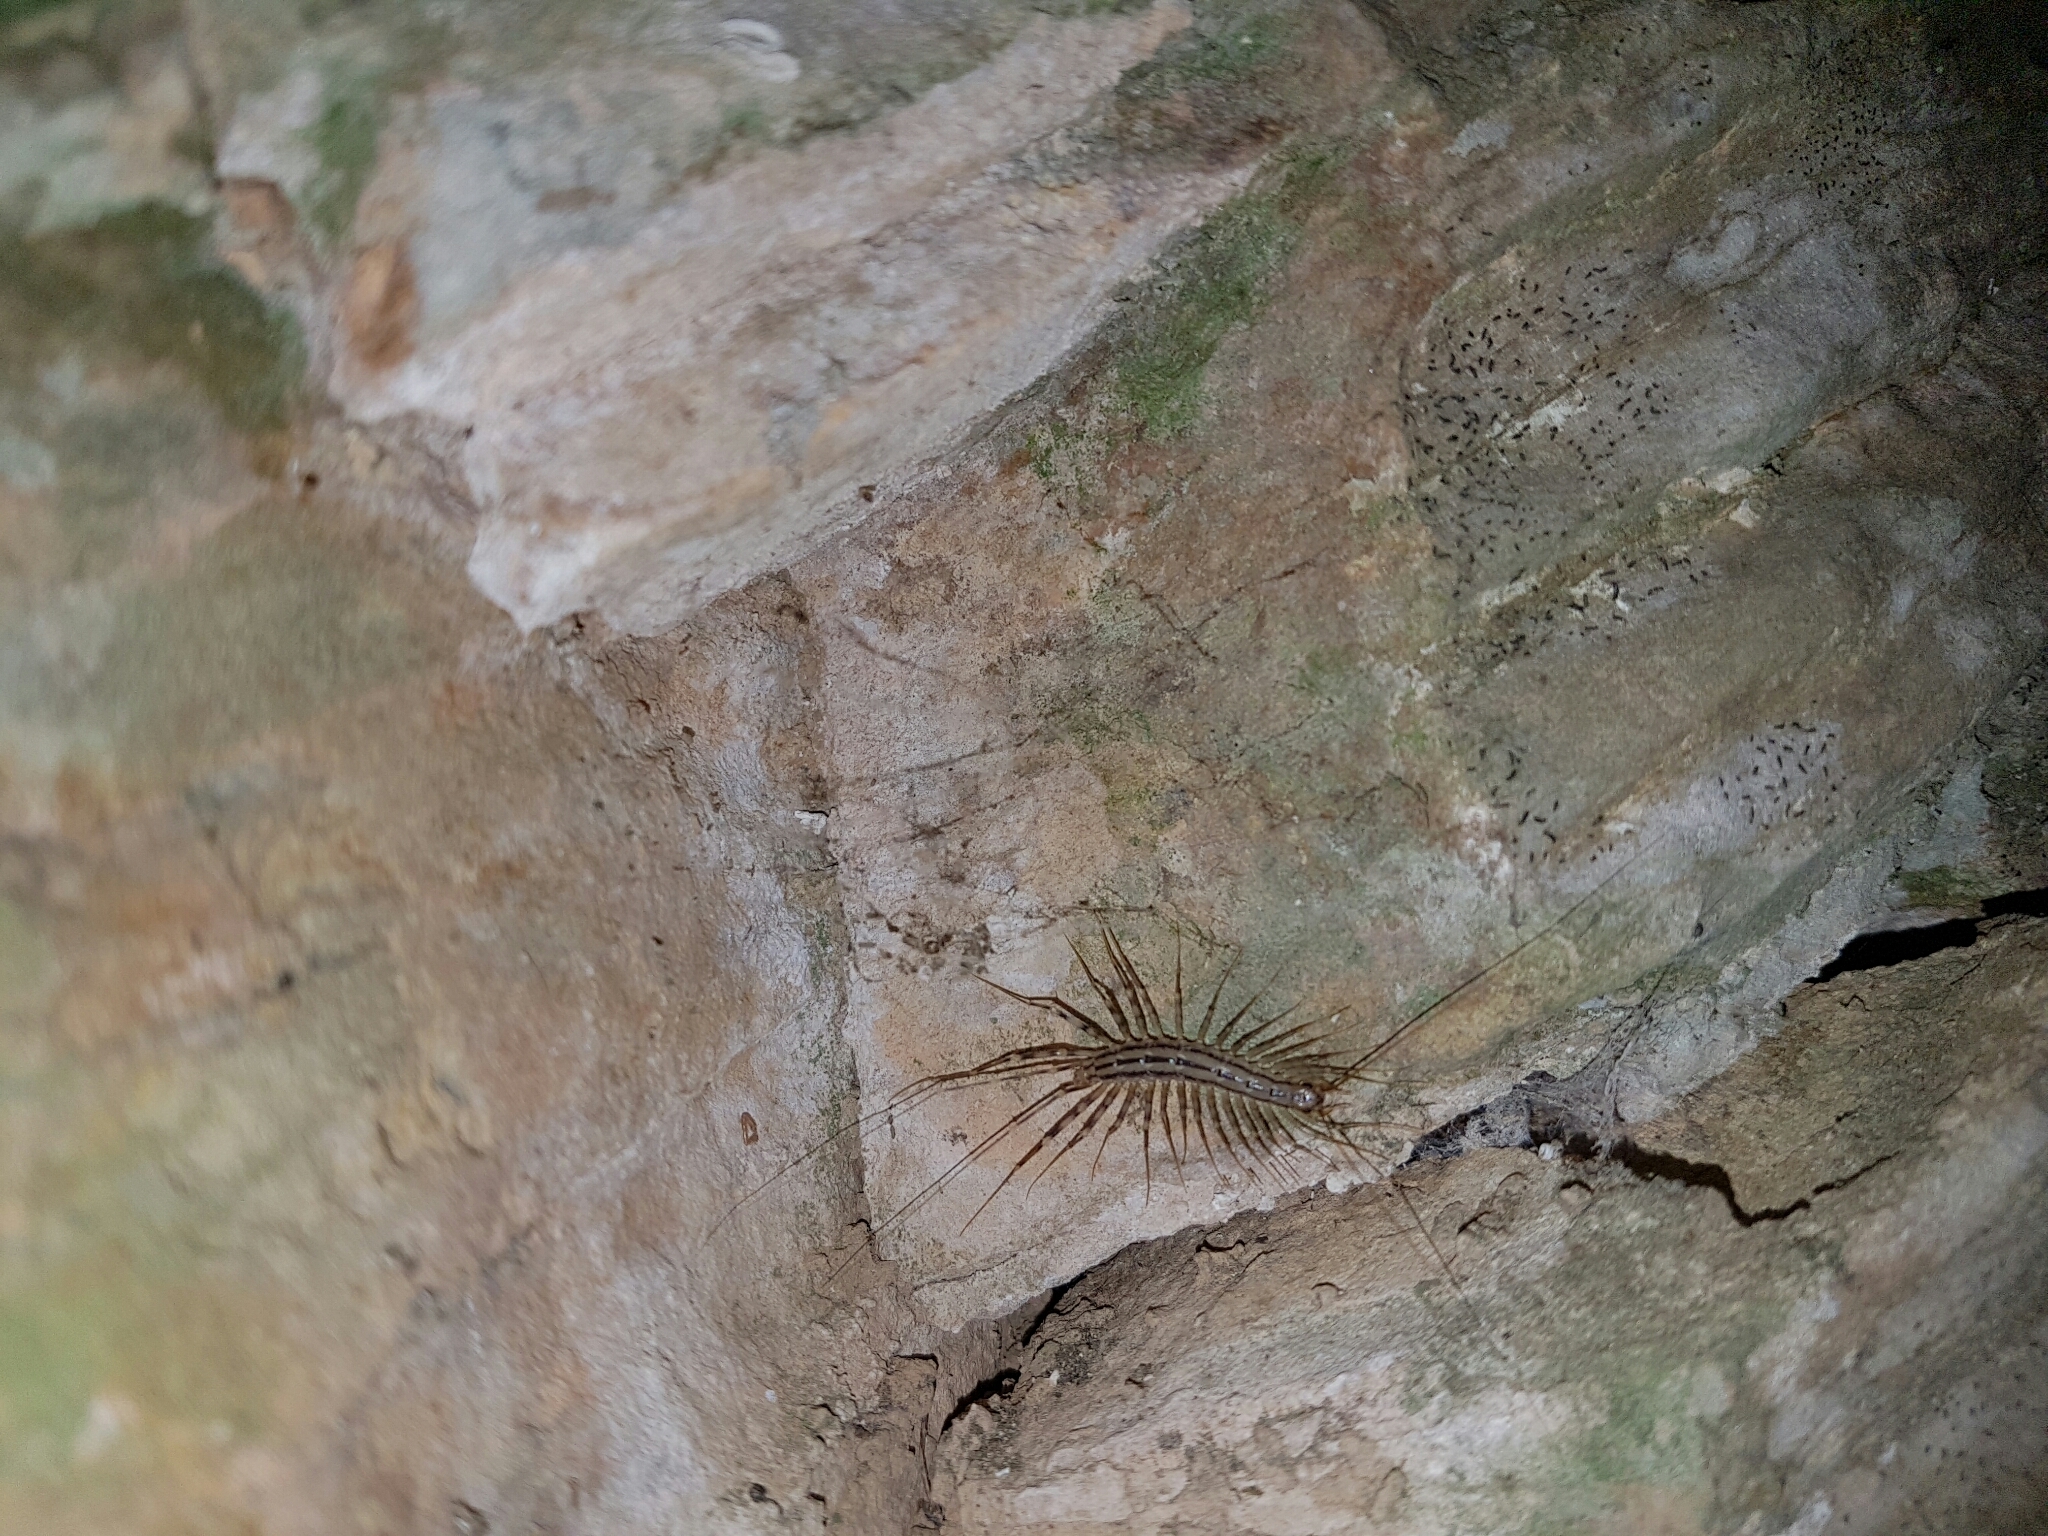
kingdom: Animalia
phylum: Arthropoda
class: Chilopoda
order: Scutigeromorpha
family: Scutigeridae
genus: Scutigera
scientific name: Scutigera coleoptrata
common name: House centipede
